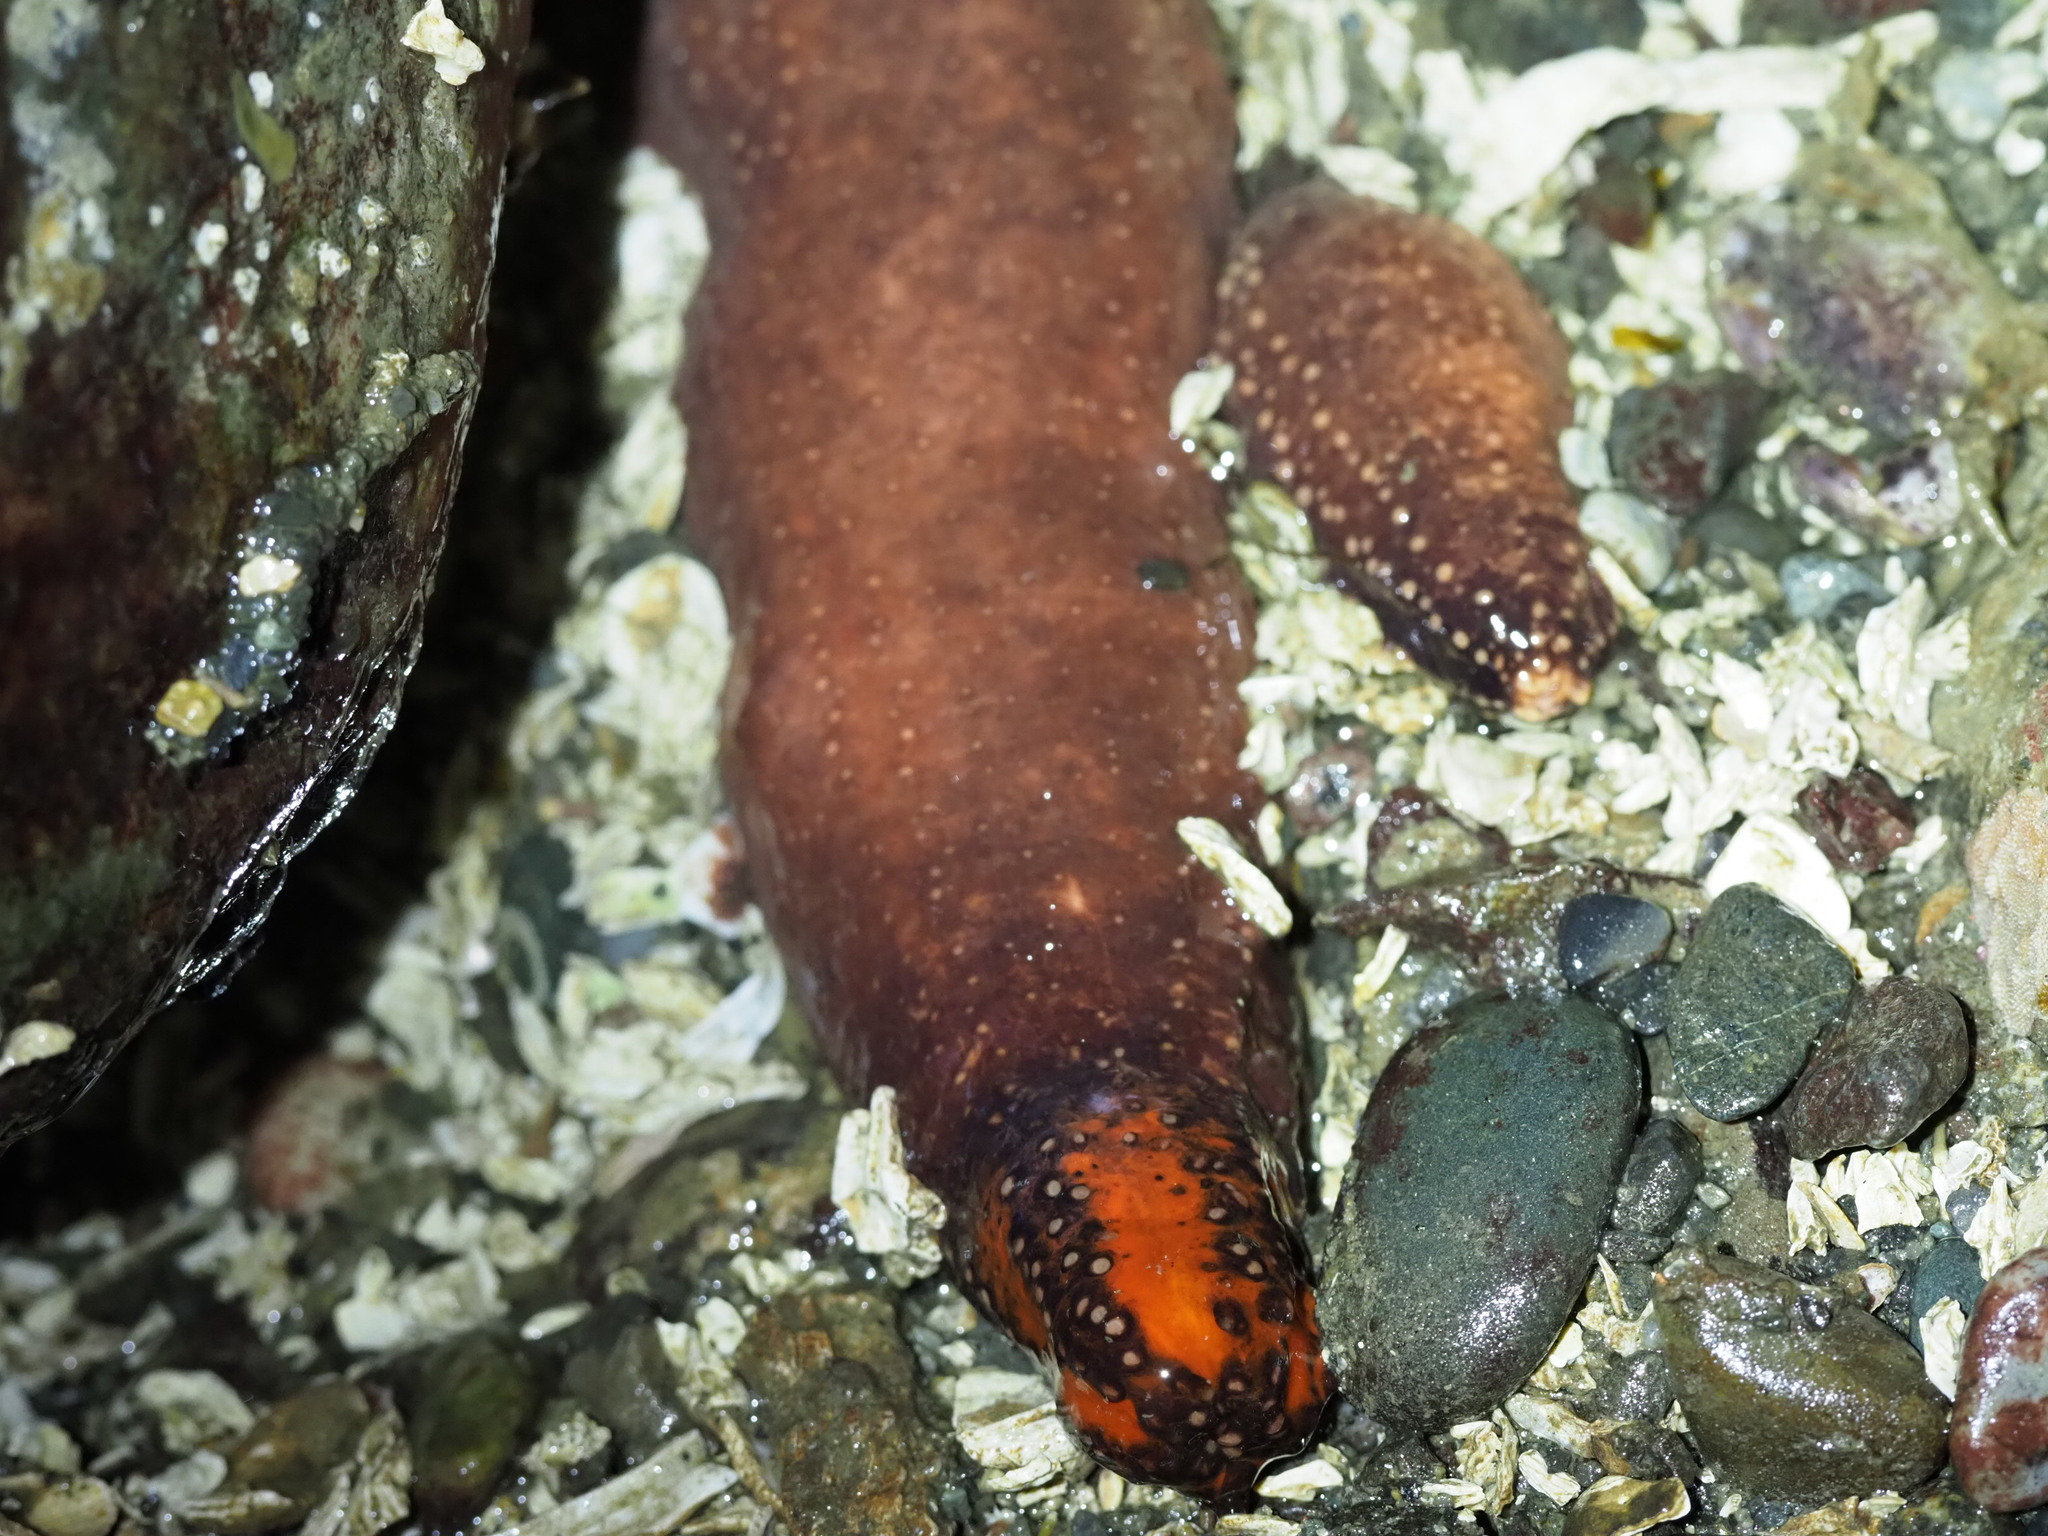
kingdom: Animalia
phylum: Echinodermata
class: Holothuroidea
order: Dendrochirotida
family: Cucumariidae
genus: Cucumaria
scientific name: Cucumaria miniata
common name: Orange sea cucumber
